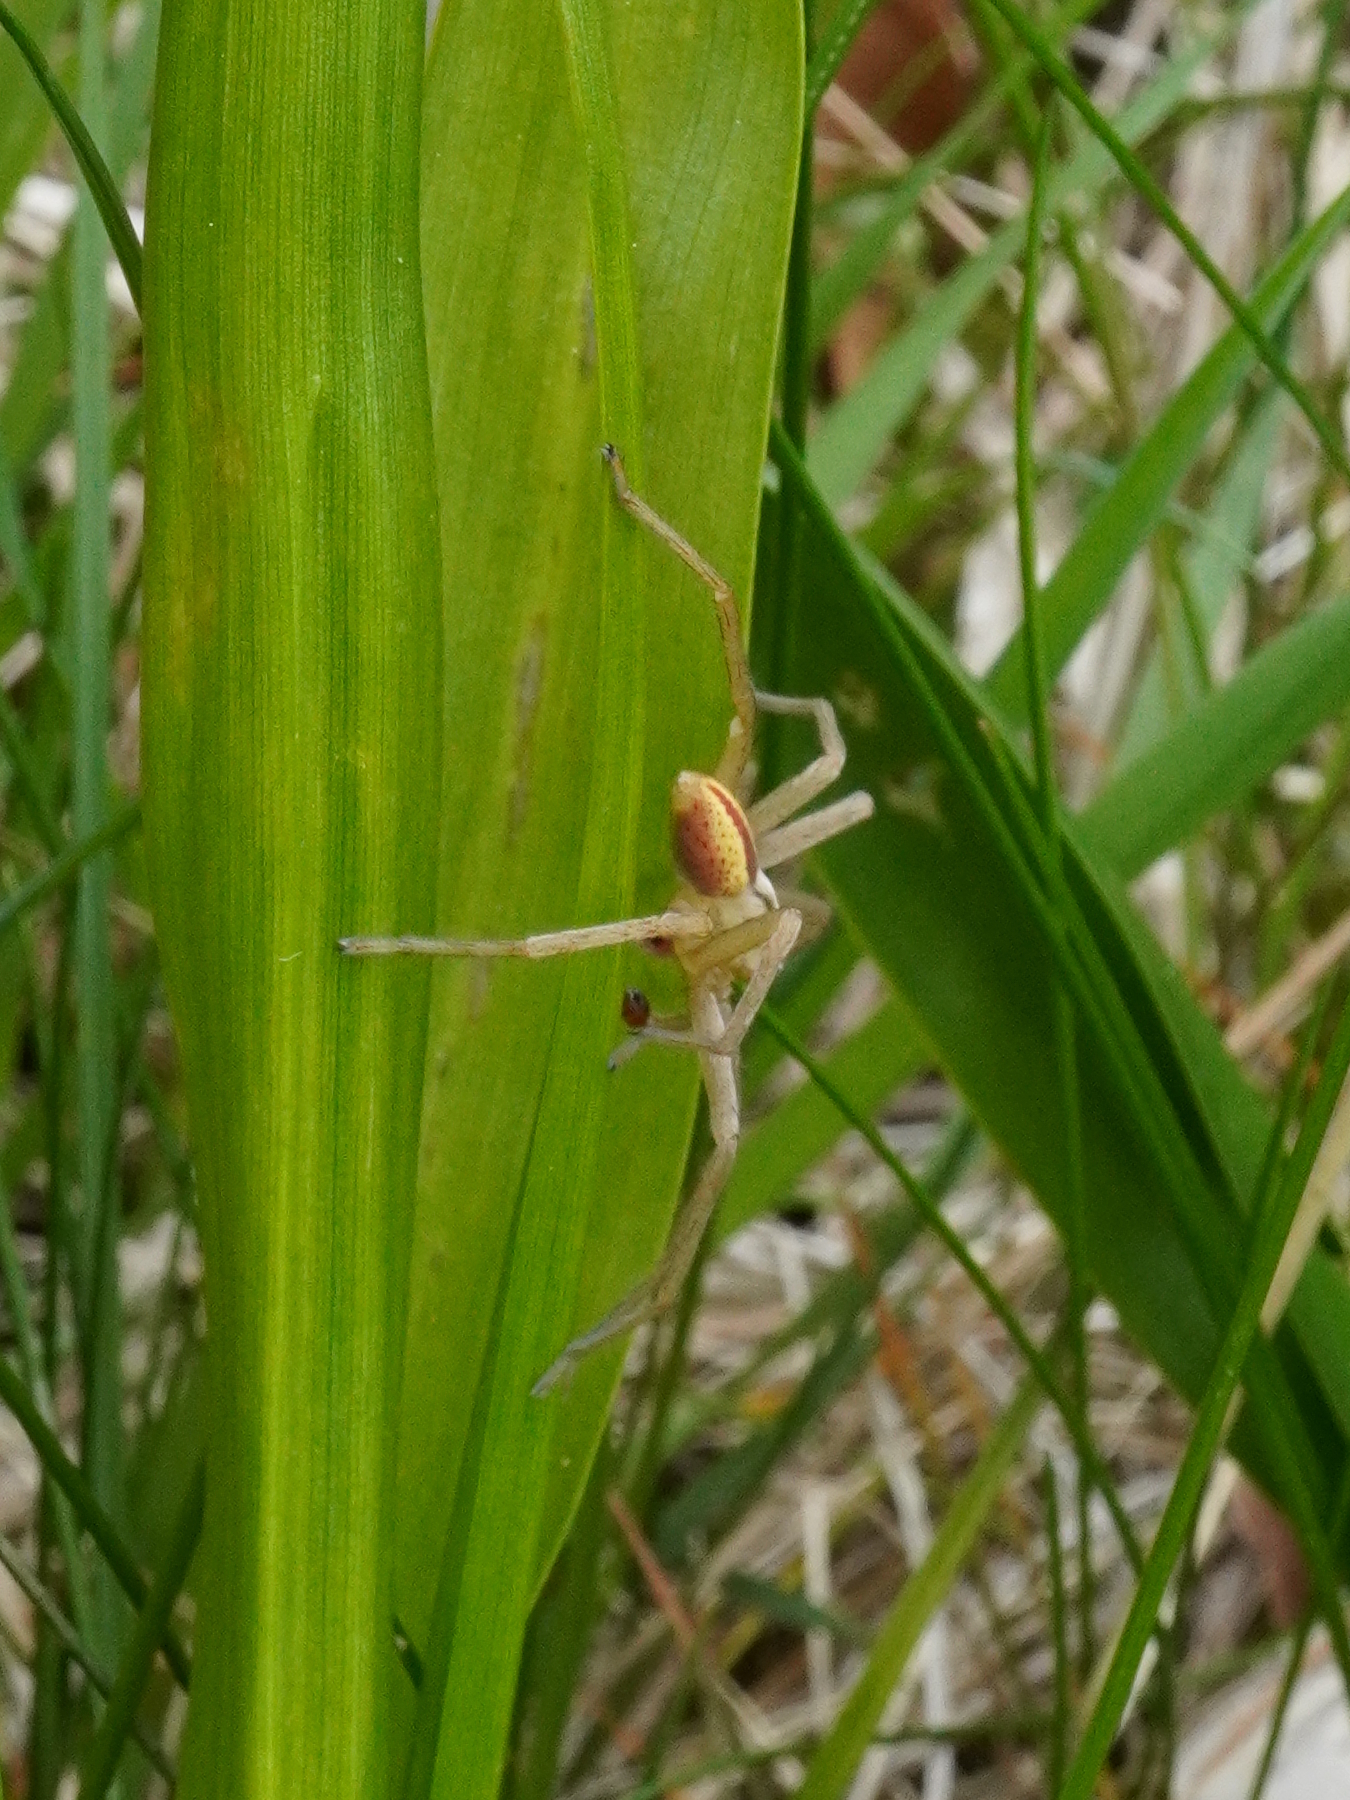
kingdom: Animalia
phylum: Arthropoda
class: Arachnida
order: Araneae
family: Sparassidae
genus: Micrommata
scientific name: Micrommata virescens
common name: Green spider
